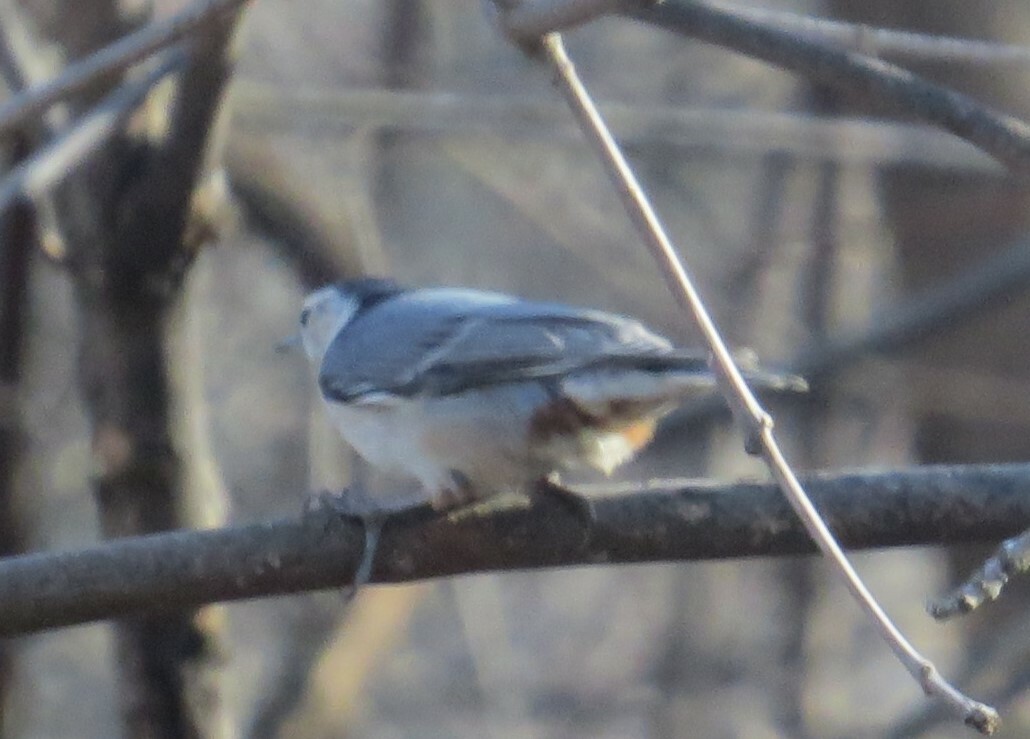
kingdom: Animalia
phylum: Chordata
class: Aves
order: Passeriformes
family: Sittidae
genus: Sitta
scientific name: Sitta carolinensis
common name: White-breasted nuthatch
